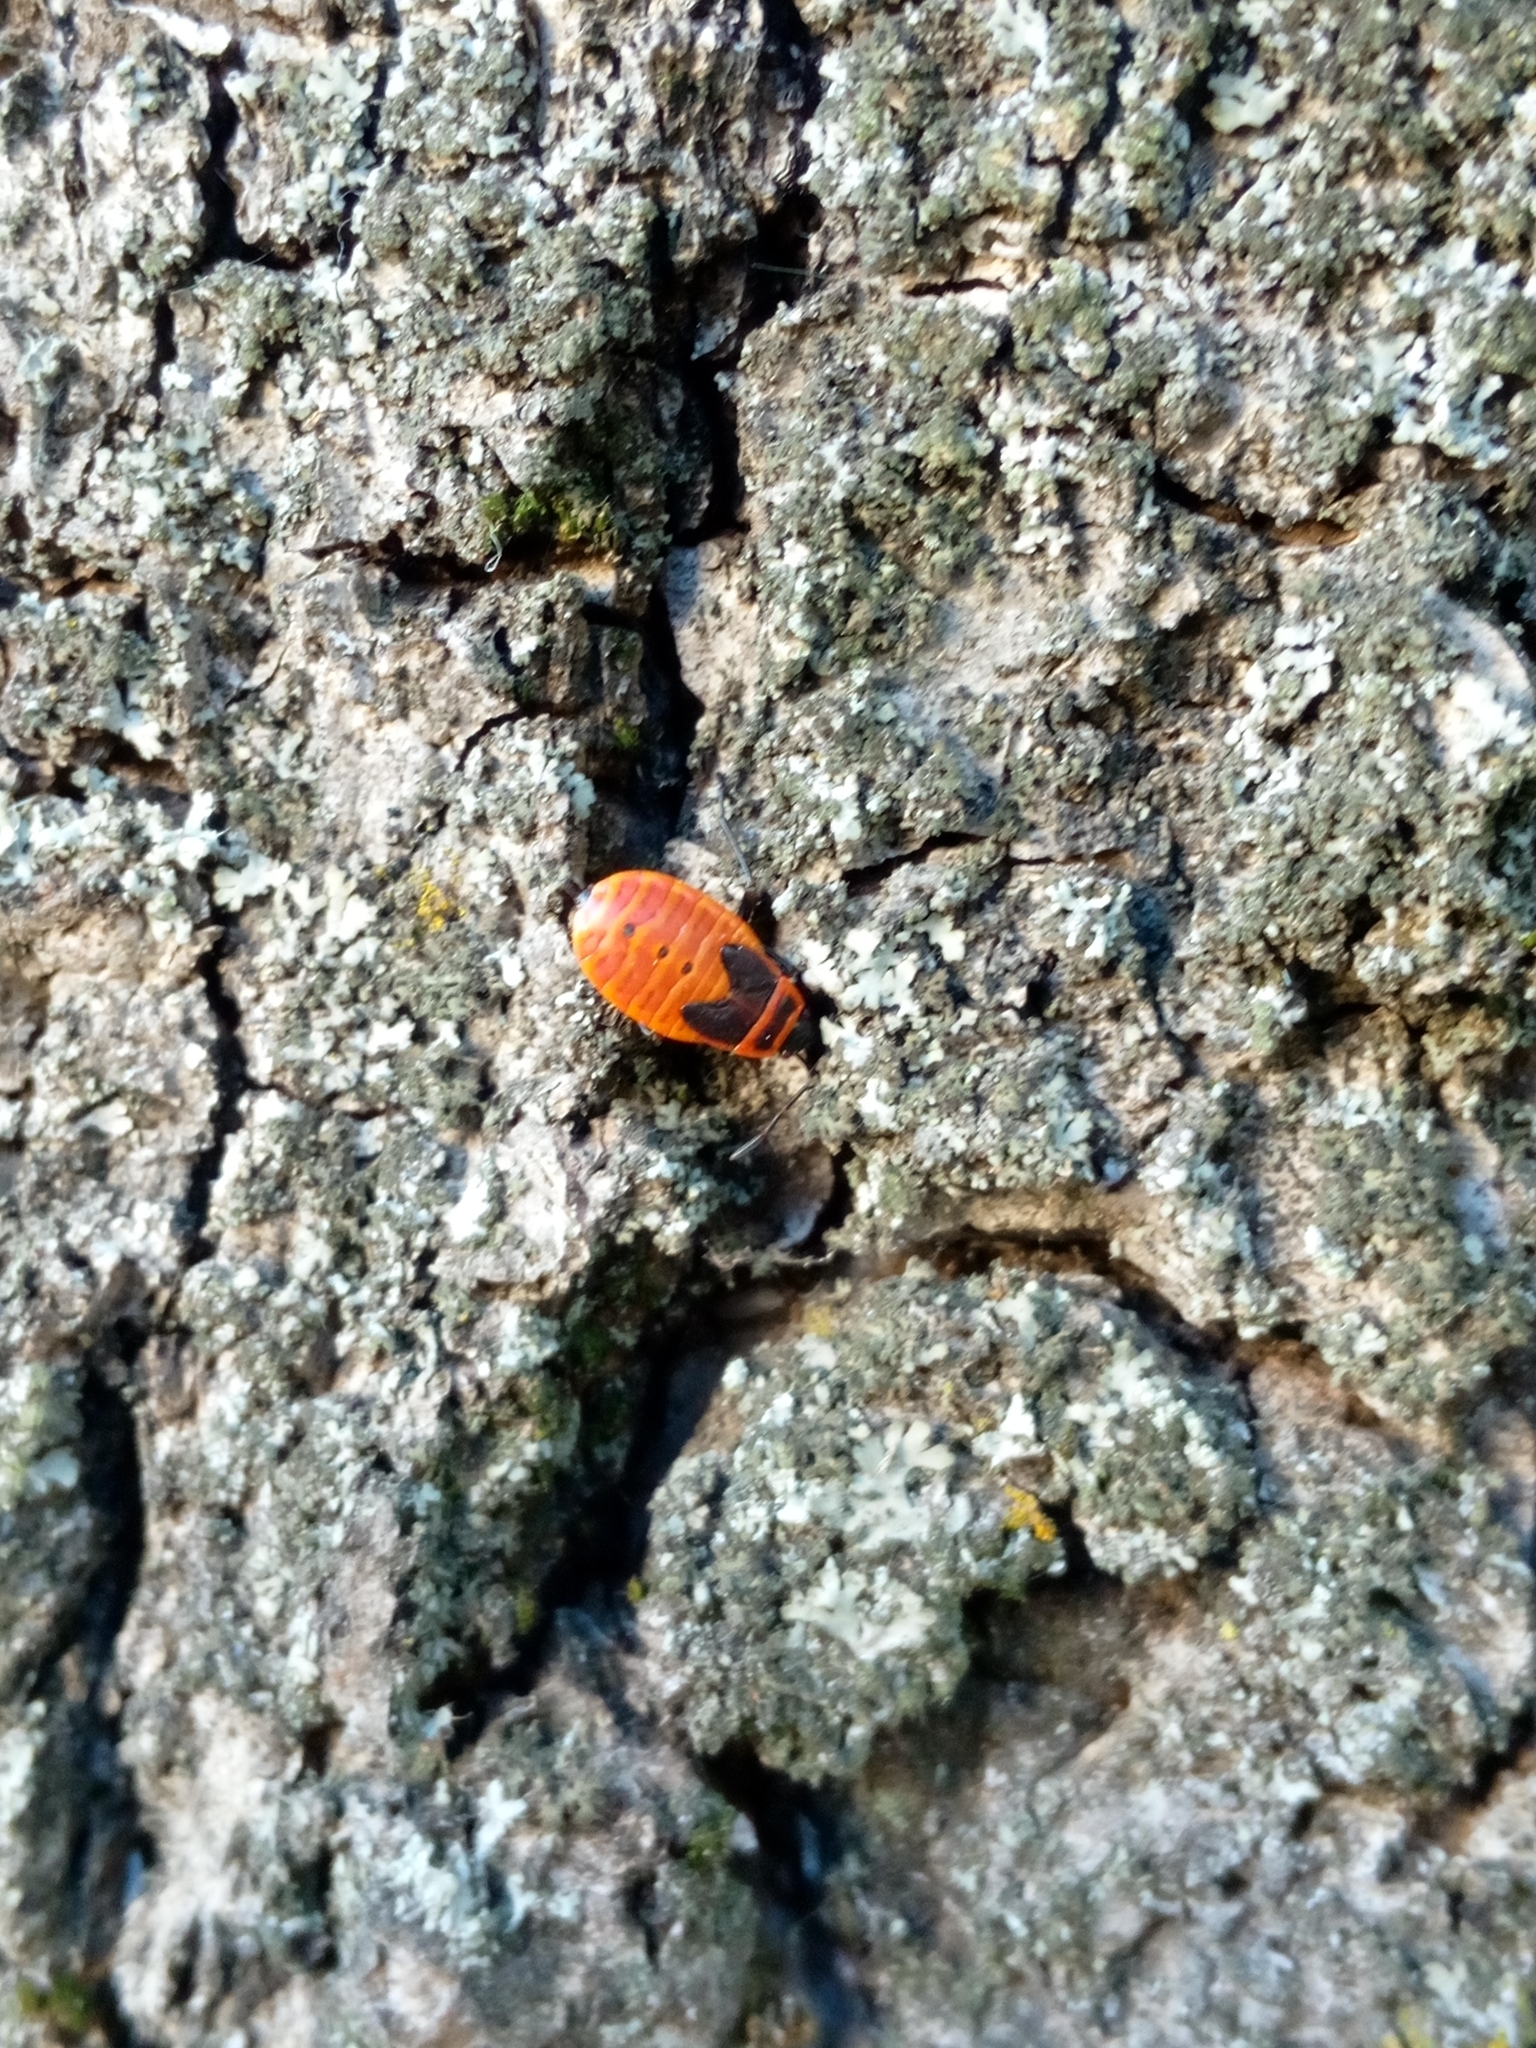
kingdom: Animalia
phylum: Arthropoda
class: Insecta
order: Hemiptera
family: Pyrrhocoridae
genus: Pyrrhocoris
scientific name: Pyrrhocoris apterus
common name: Firebug
